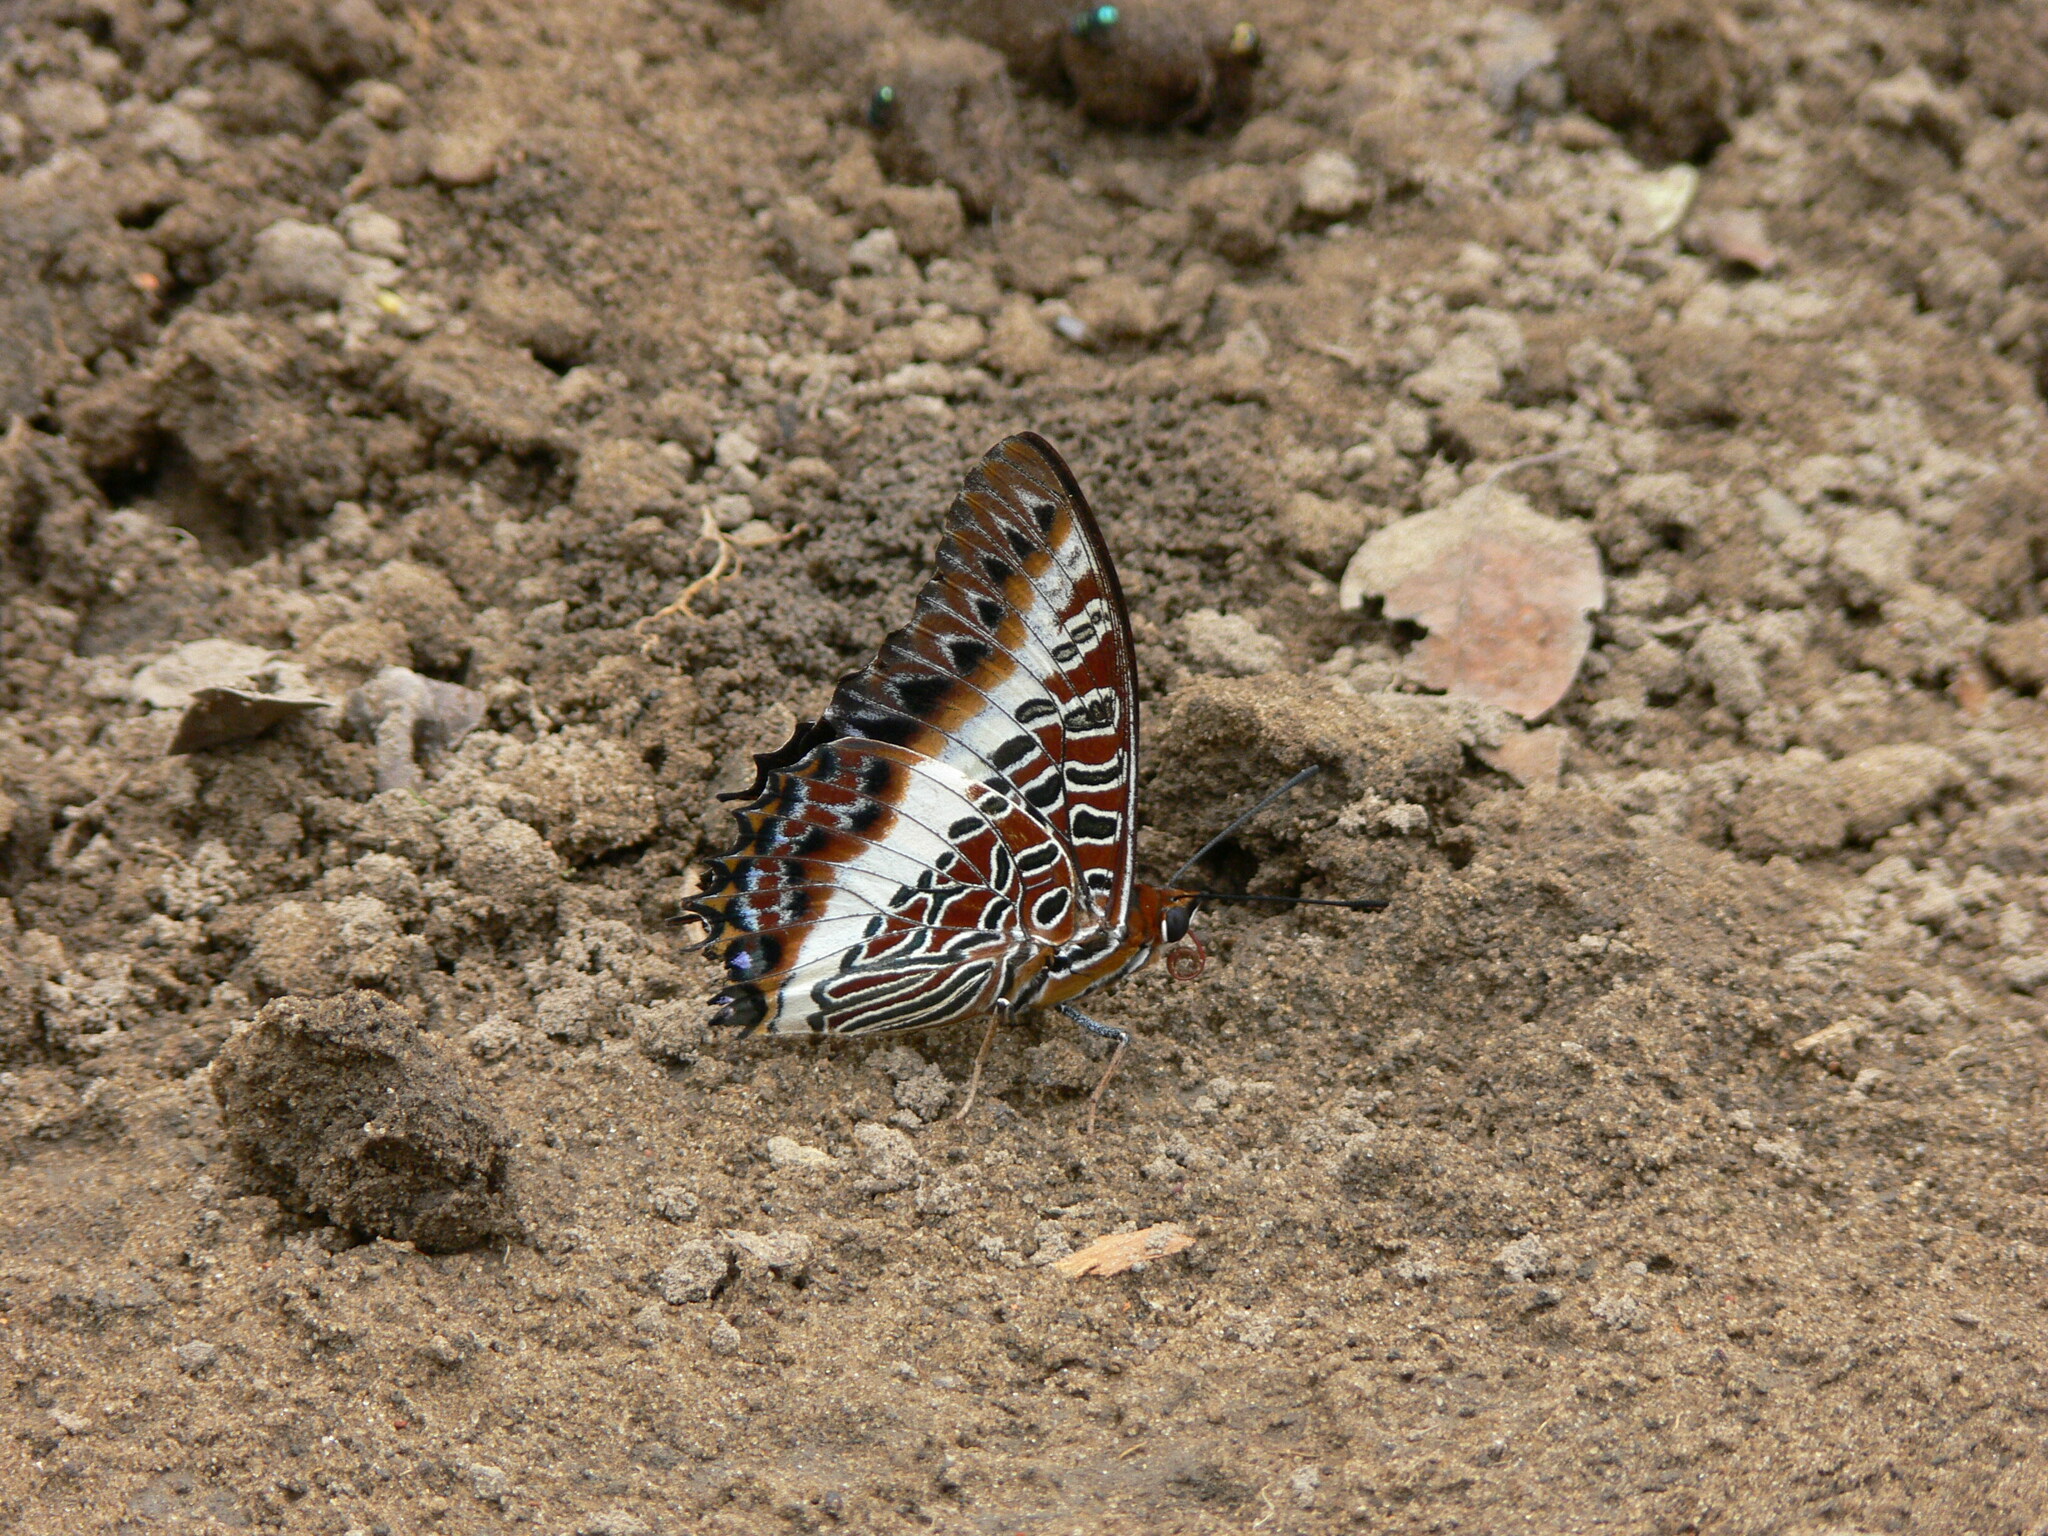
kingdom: Animalia
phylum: Arthropoda
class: Insecta
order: Lepidoptera
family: Nymphalidae
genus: Charaxes
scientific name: Charaxes brutus
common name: White-barred charaxes
